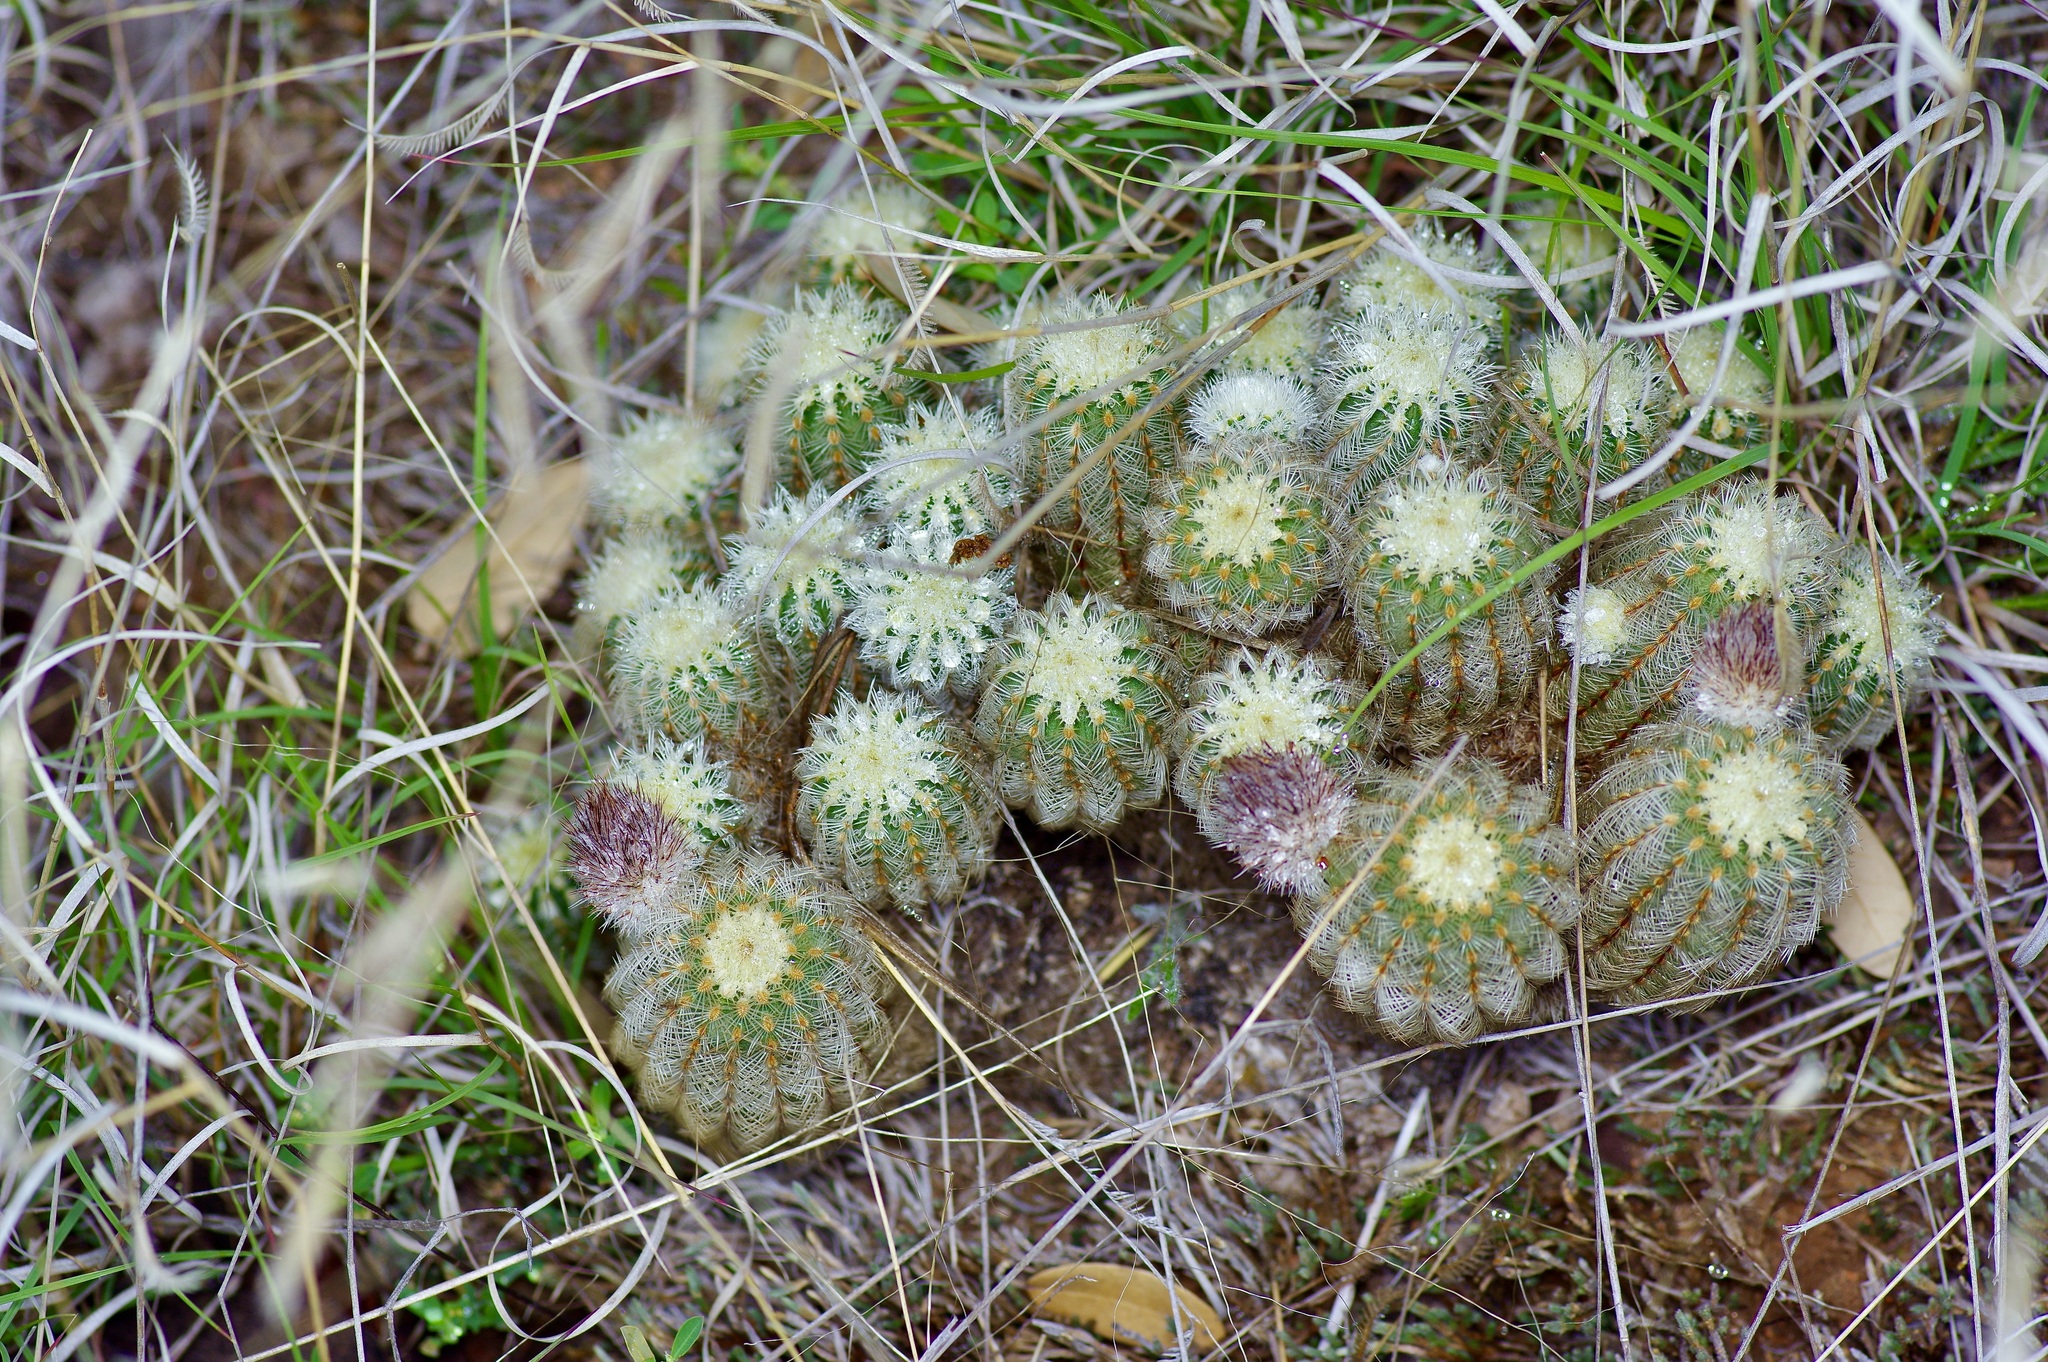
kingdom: Plantae
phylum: Tracheophyta
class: Magnoliopsida
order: Caryophyllales
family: Cactaceae
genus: Echinocereus
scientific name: Echinocereus reichenbachii
